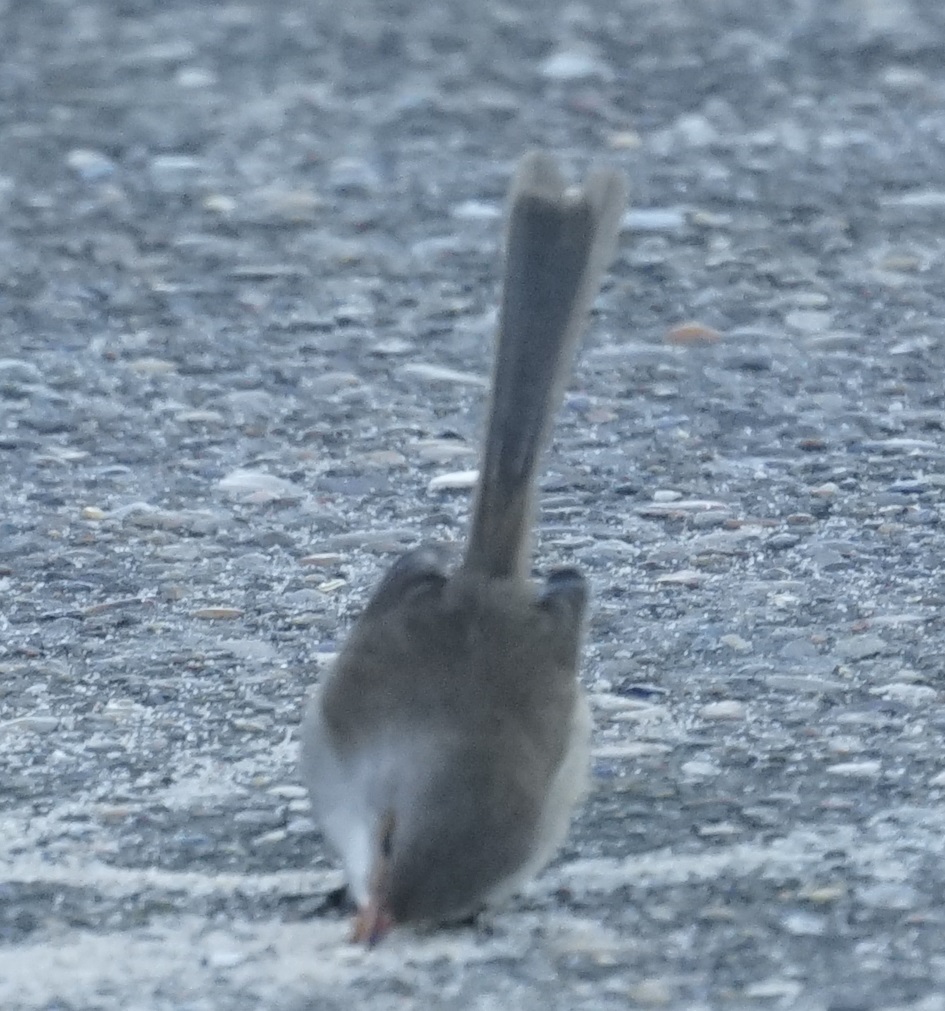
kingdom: Animalia
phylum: Chordata
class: Aves
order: Passeriformes
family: Maluridae
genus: Malurus
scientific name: Malurus cyaneus
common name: Superb fairywren
